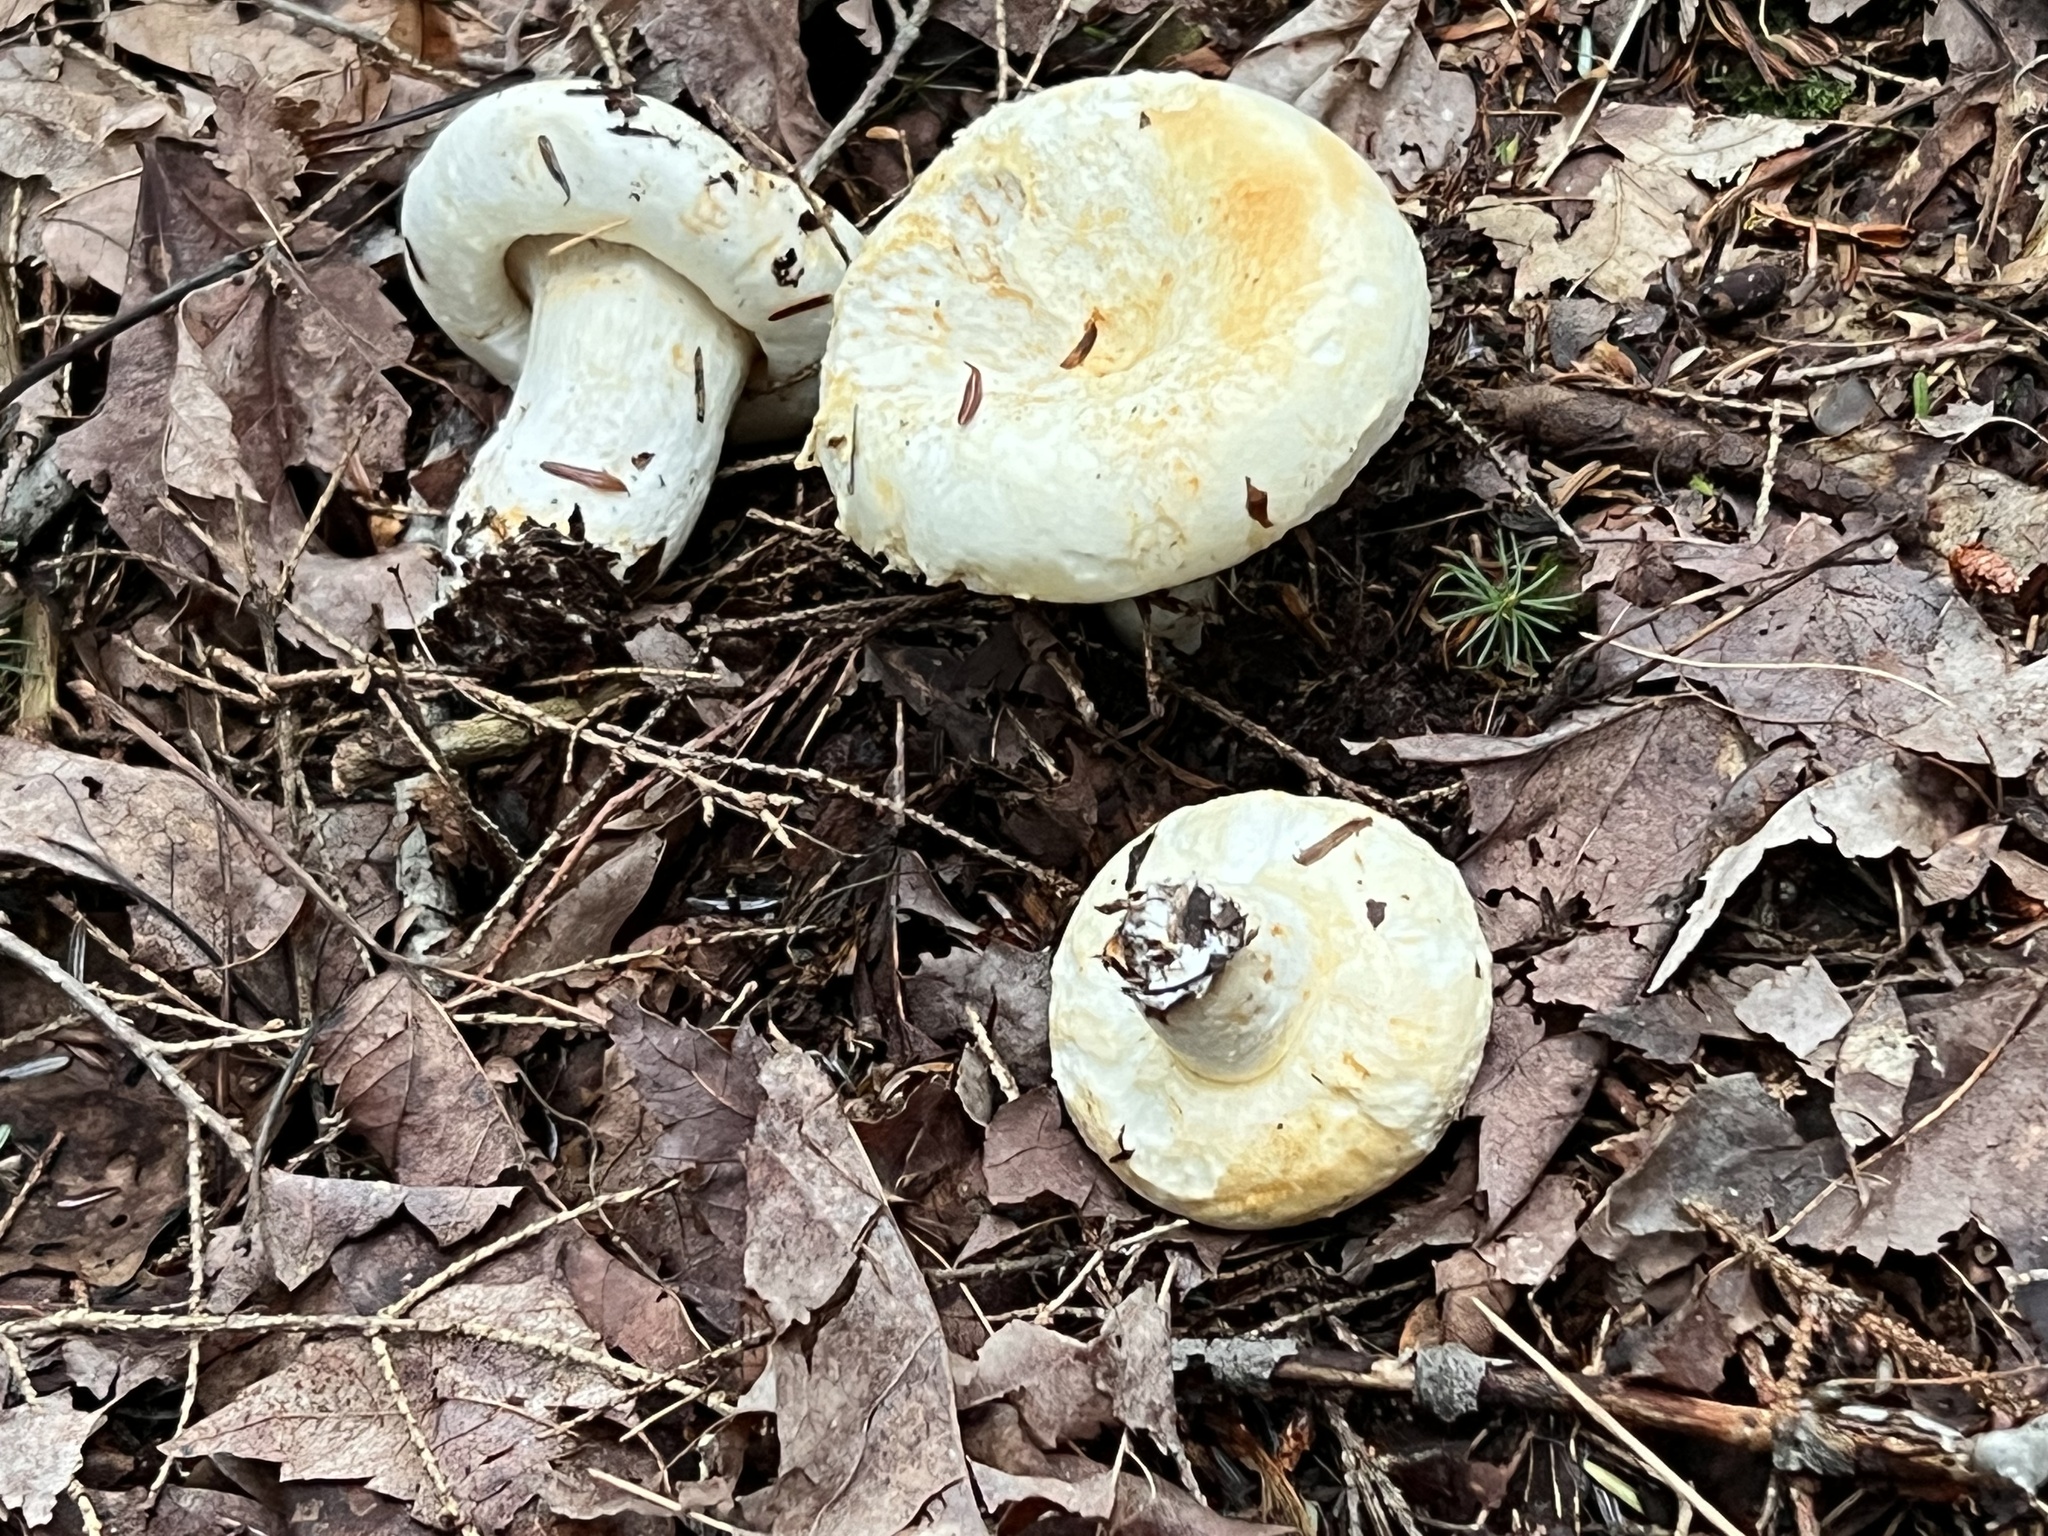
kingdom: Fungi
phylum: Basidiomycota
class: Agaricomycetes
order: Russulales
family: Russulaceae
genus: Lactifluus
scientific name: Lactifluus
